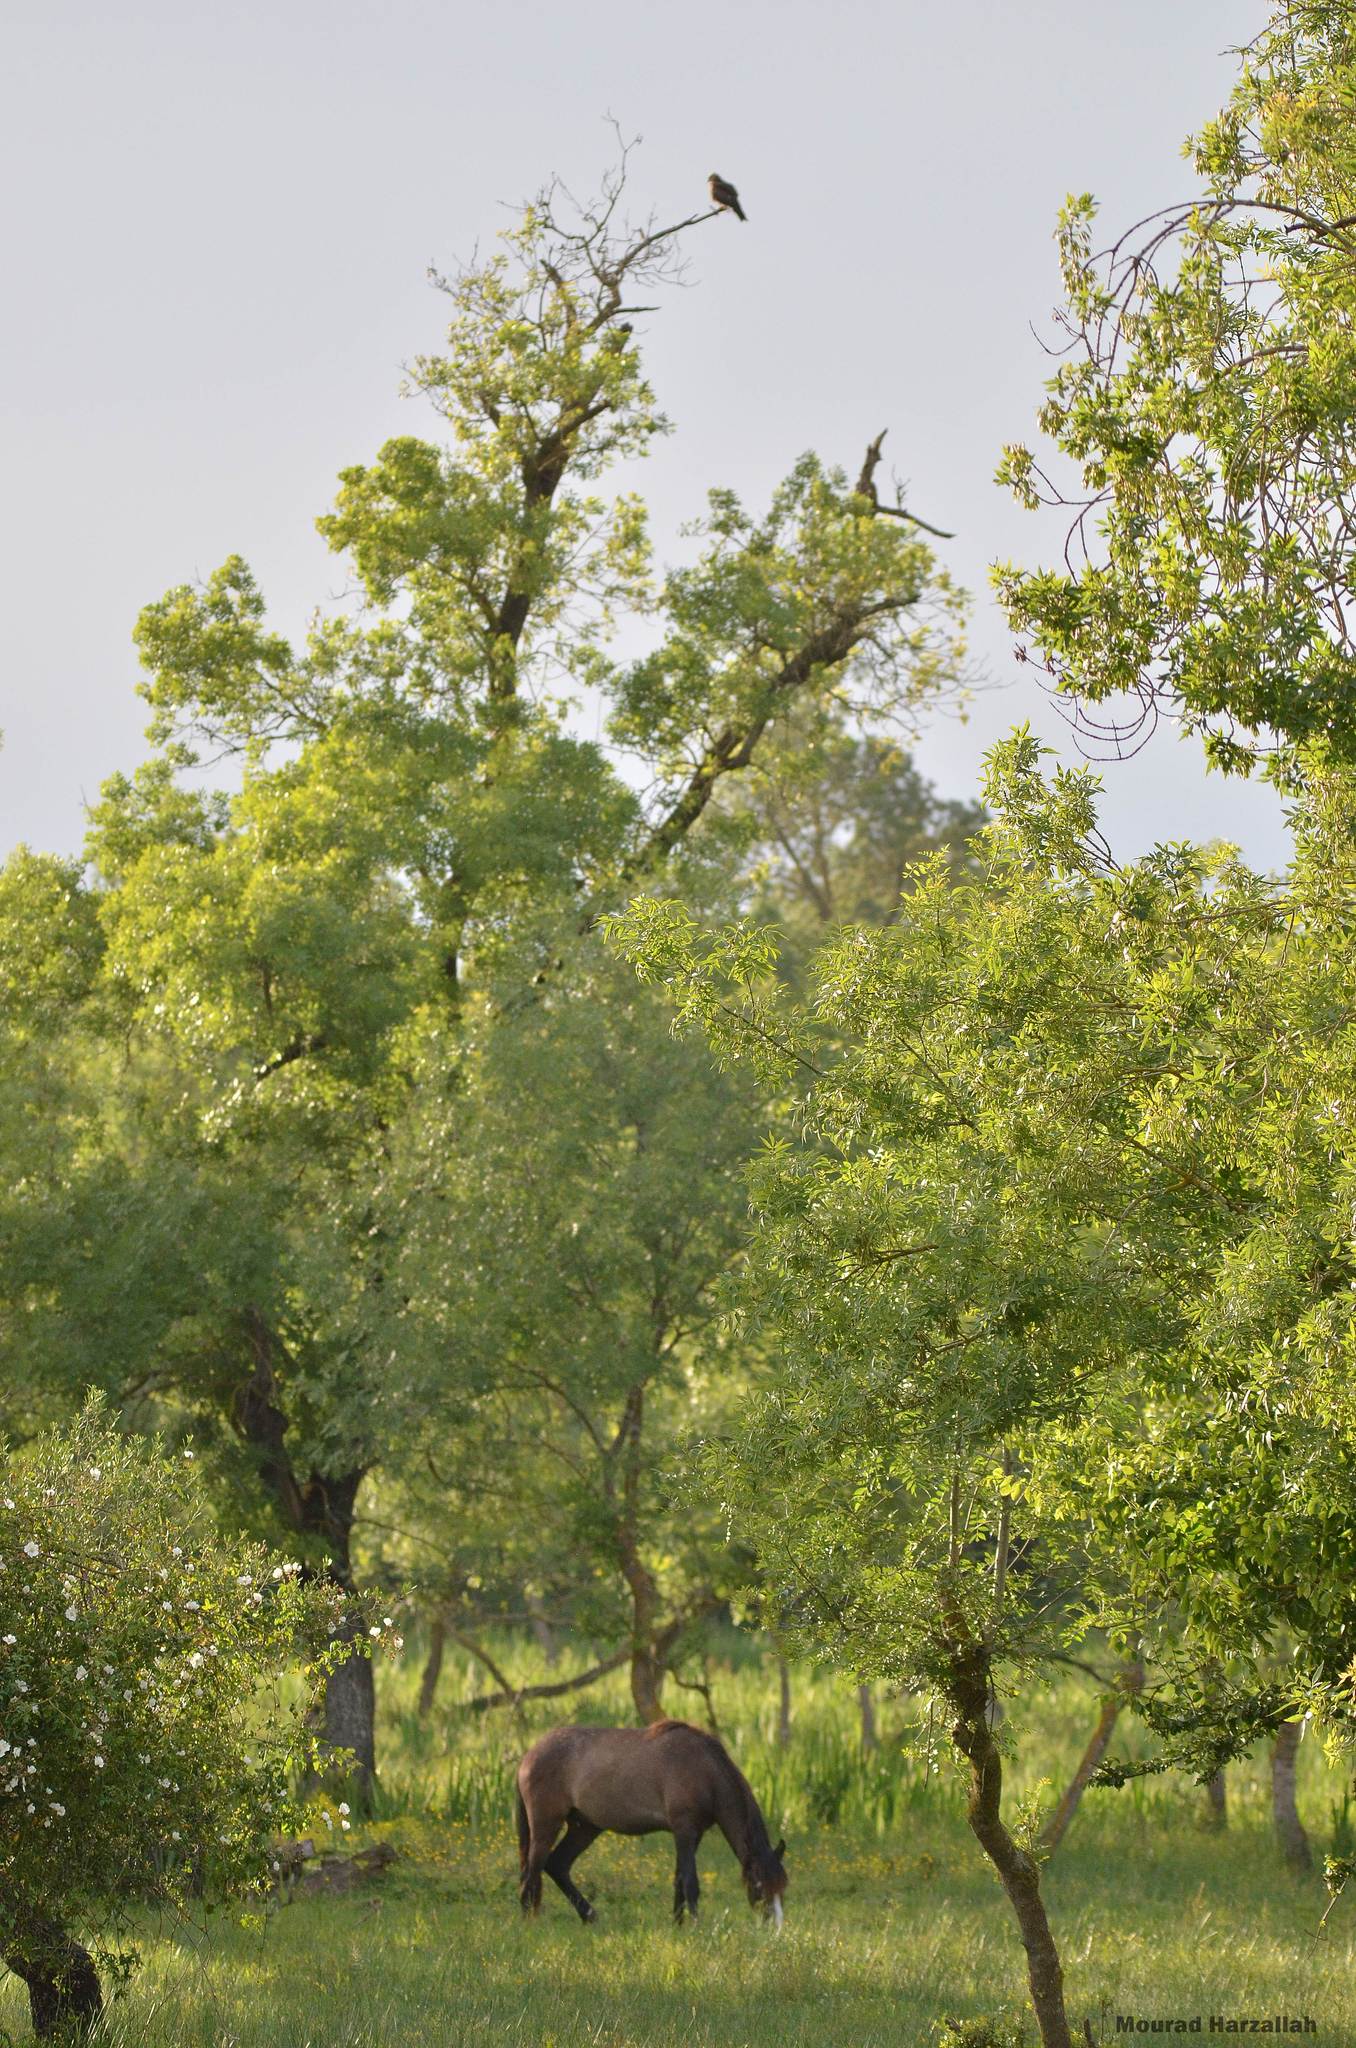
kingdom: Animalia
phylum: Chordata
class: Mammalia
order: Perissodactyla
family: Equidae
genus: Equus
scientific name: Equus caballus
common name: Horse
